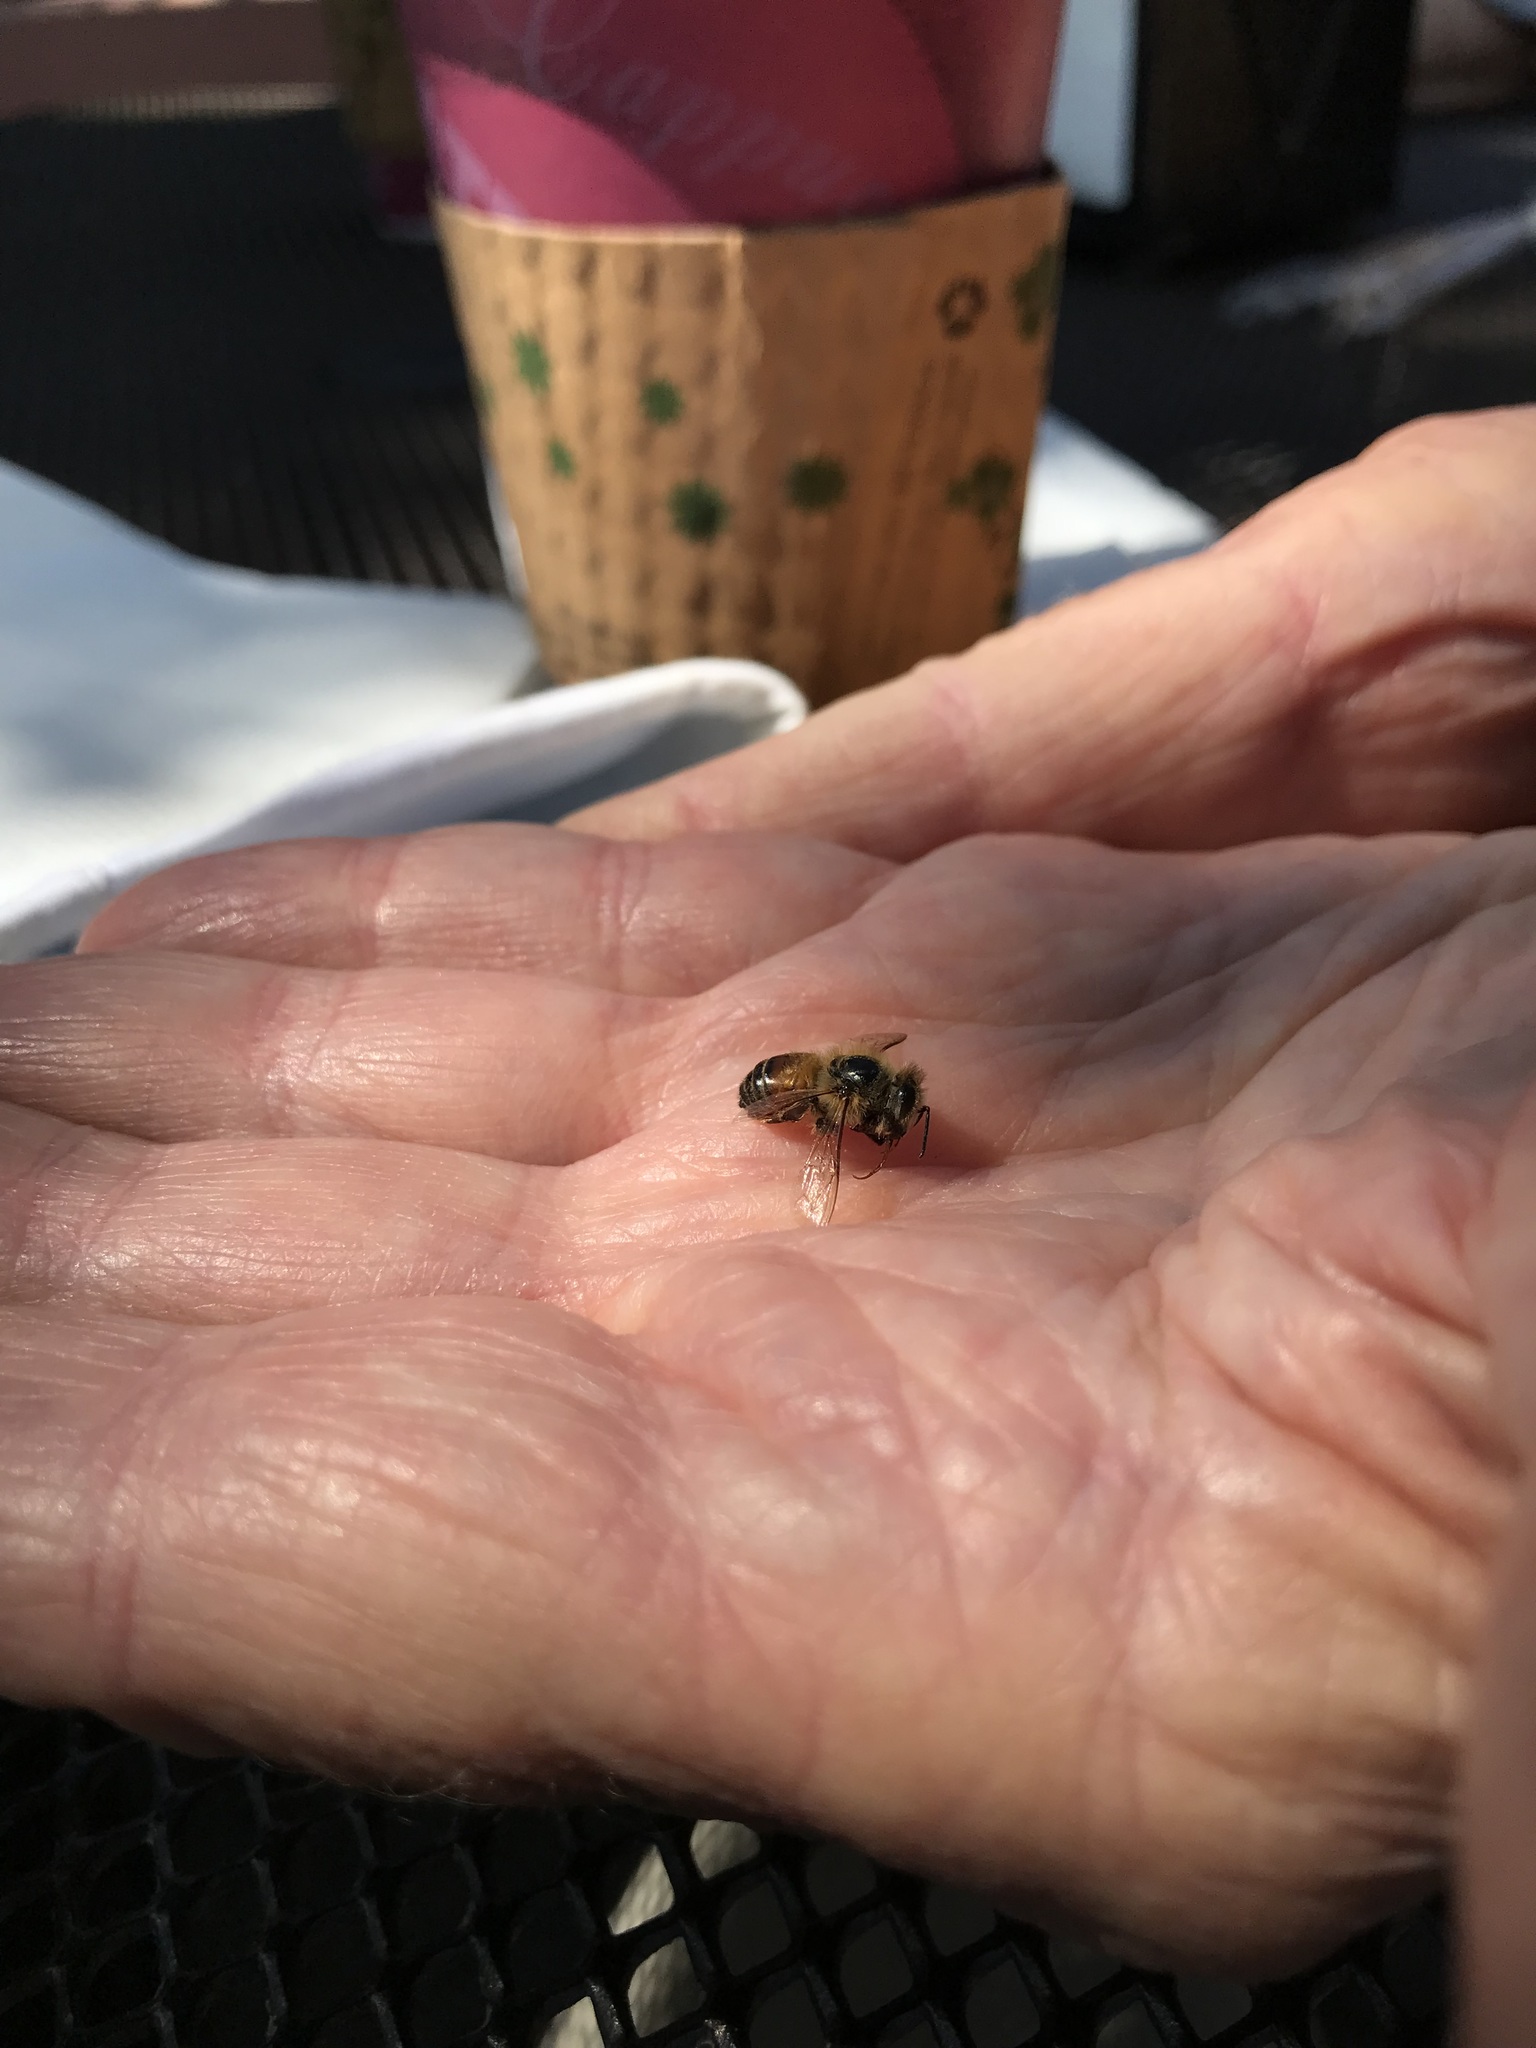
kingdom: Animalia
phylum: Arthropoda
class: Insecta
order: Hymenoptera
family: Apidae
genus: Apis
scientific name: Apis mellifera
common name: Honey bee
